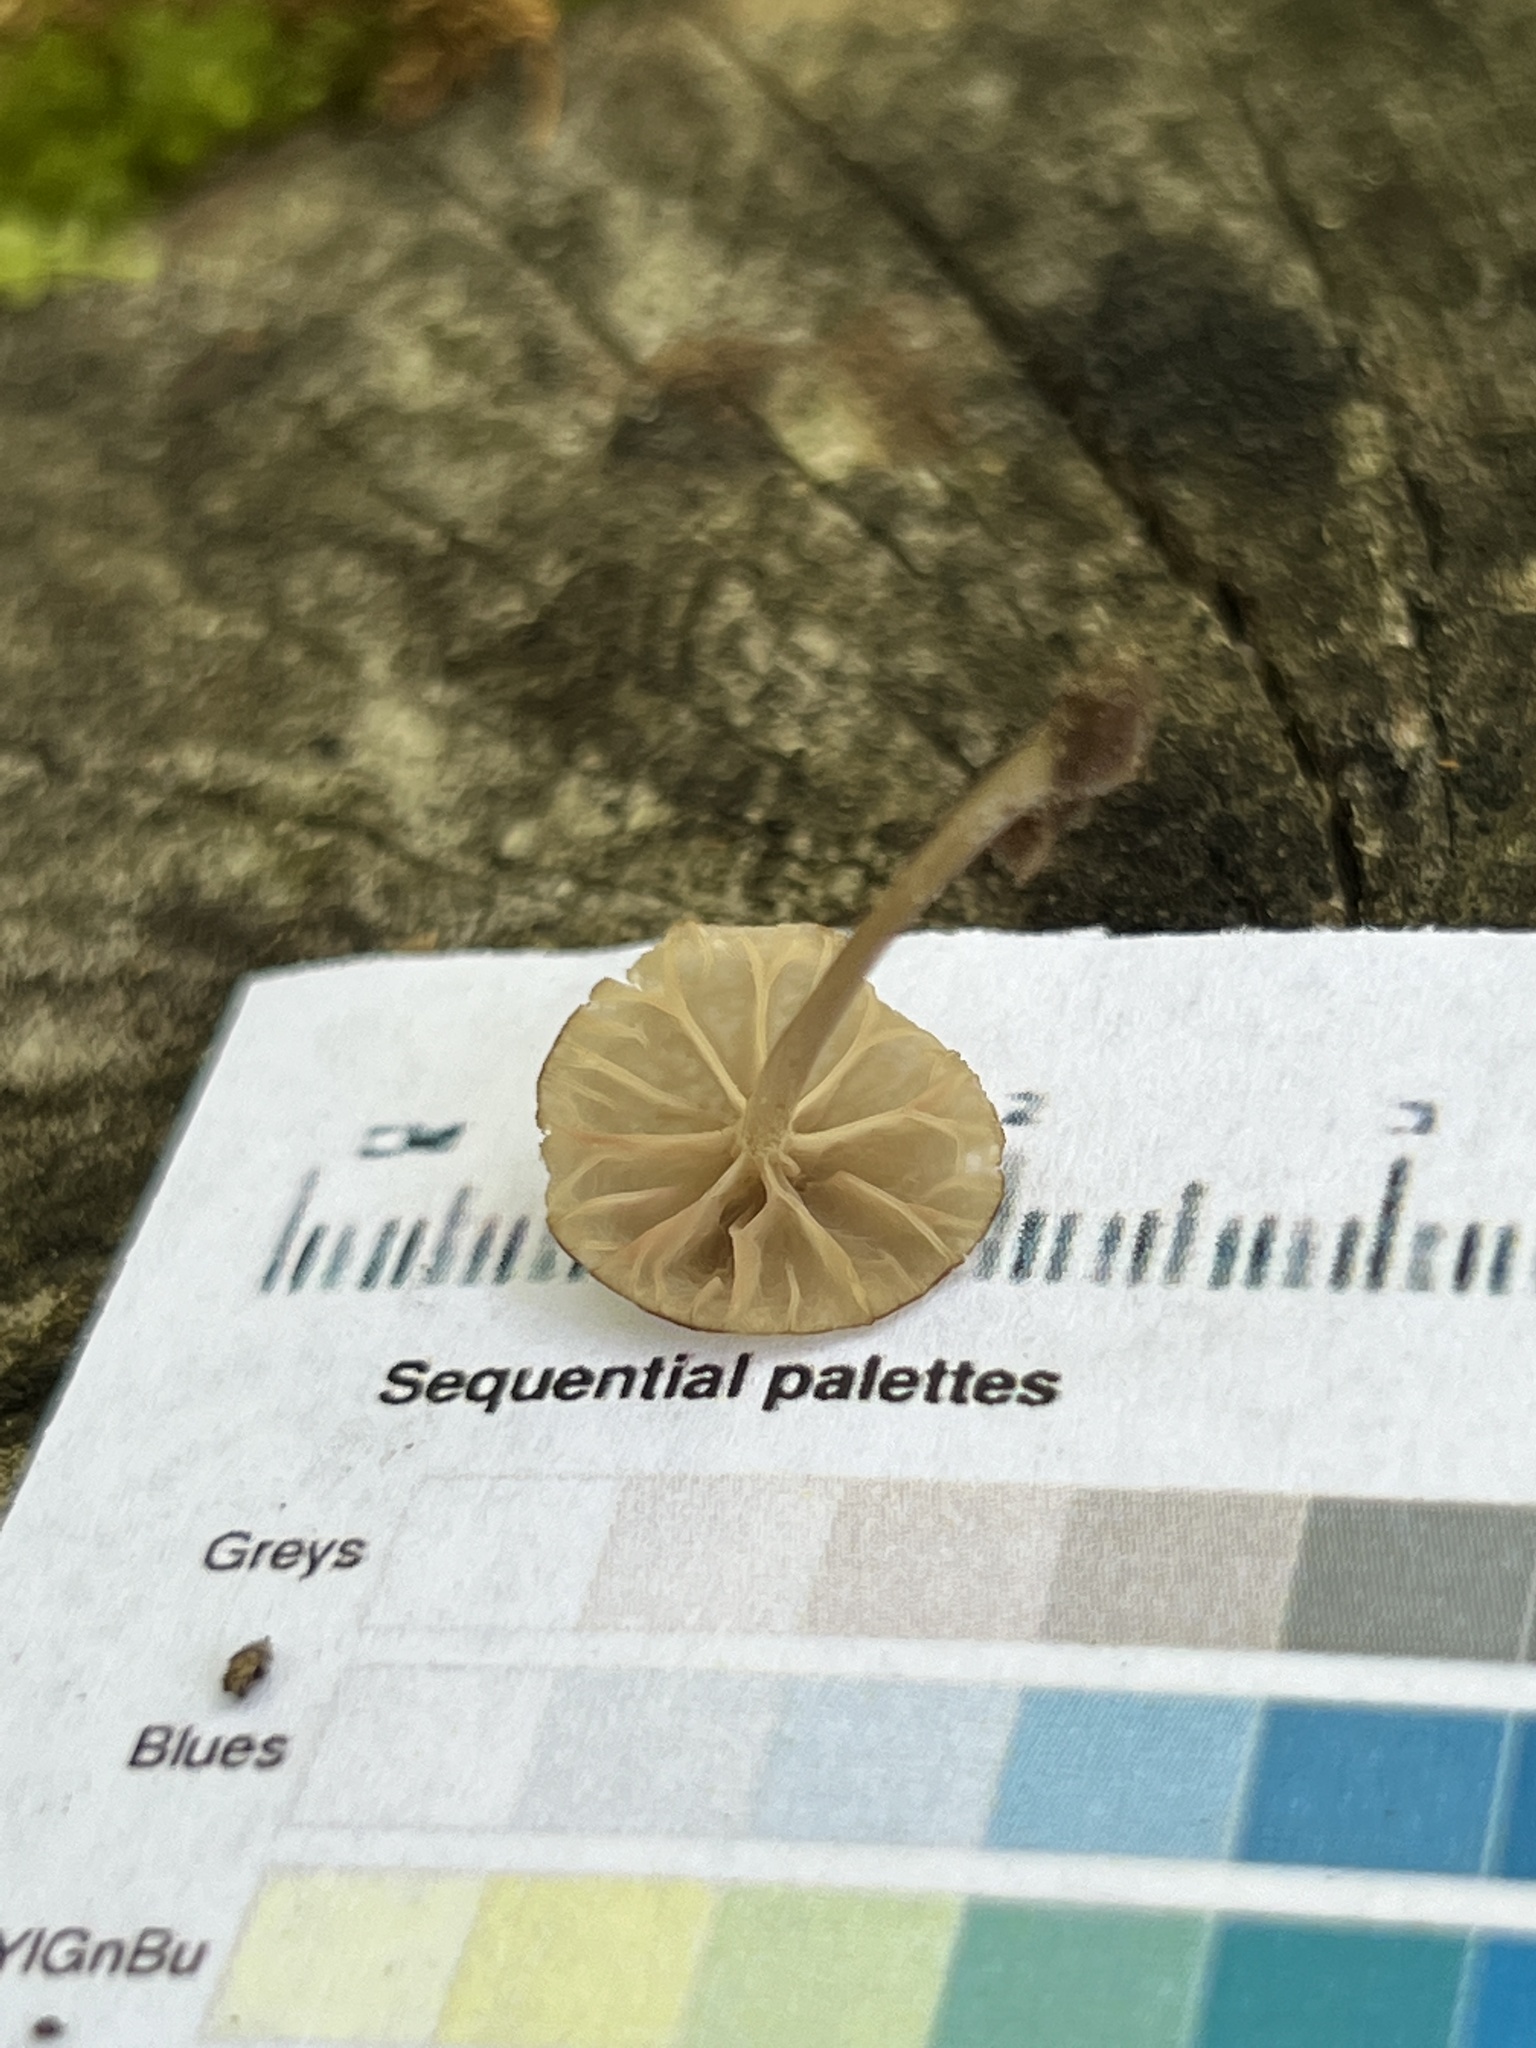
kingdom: Fungi
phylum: Basidiomycota
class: Agaricomycetes
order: Agaricales
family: Entolomataceae
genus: Entoloma
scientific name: Entoloma rhodocylix
